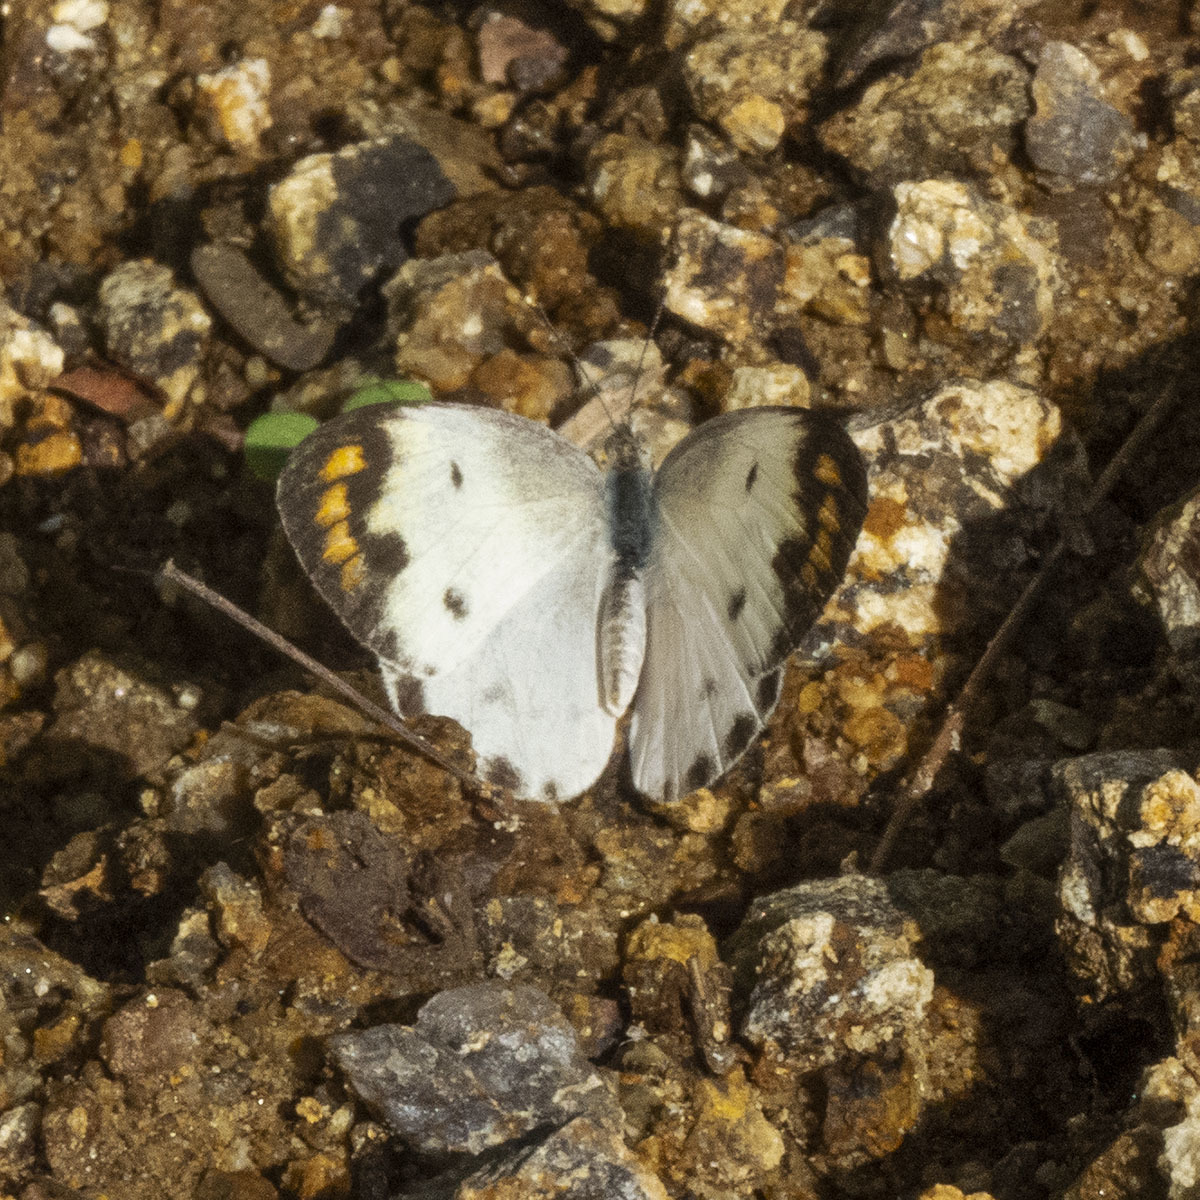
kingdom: Animalia
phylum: Arthropoda
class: Insecta
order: Lepidoptera
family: Pieridae
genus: Colotis
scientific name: Colotis aurora
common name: Plain orange-tip
